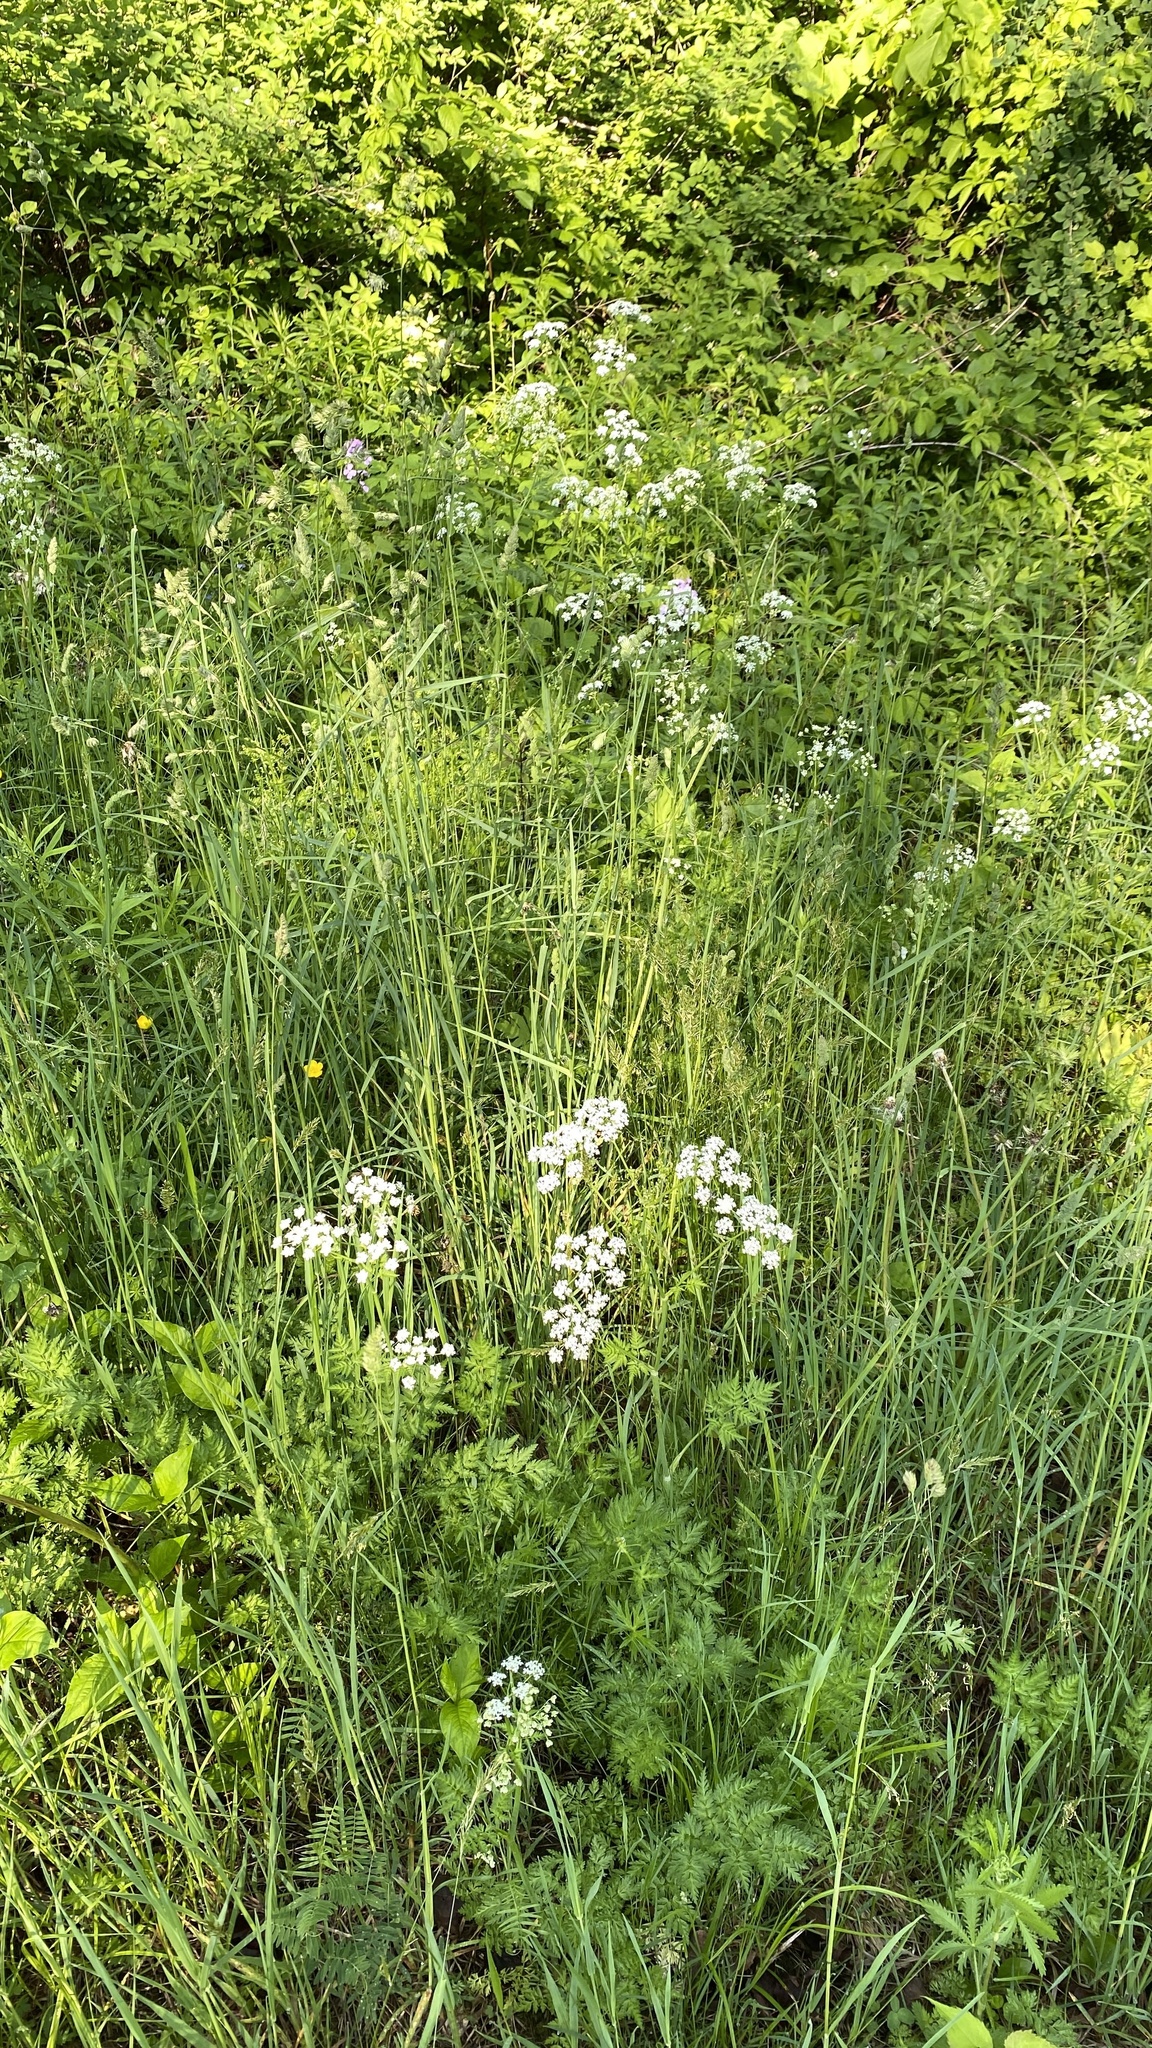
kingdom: Plantae
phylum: Tracheophyta
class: Magnoliopsida
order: Apiales
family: Apiaceae
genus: Anthriscus
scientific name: Anthriscus sylvestris
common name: Cow parsley
